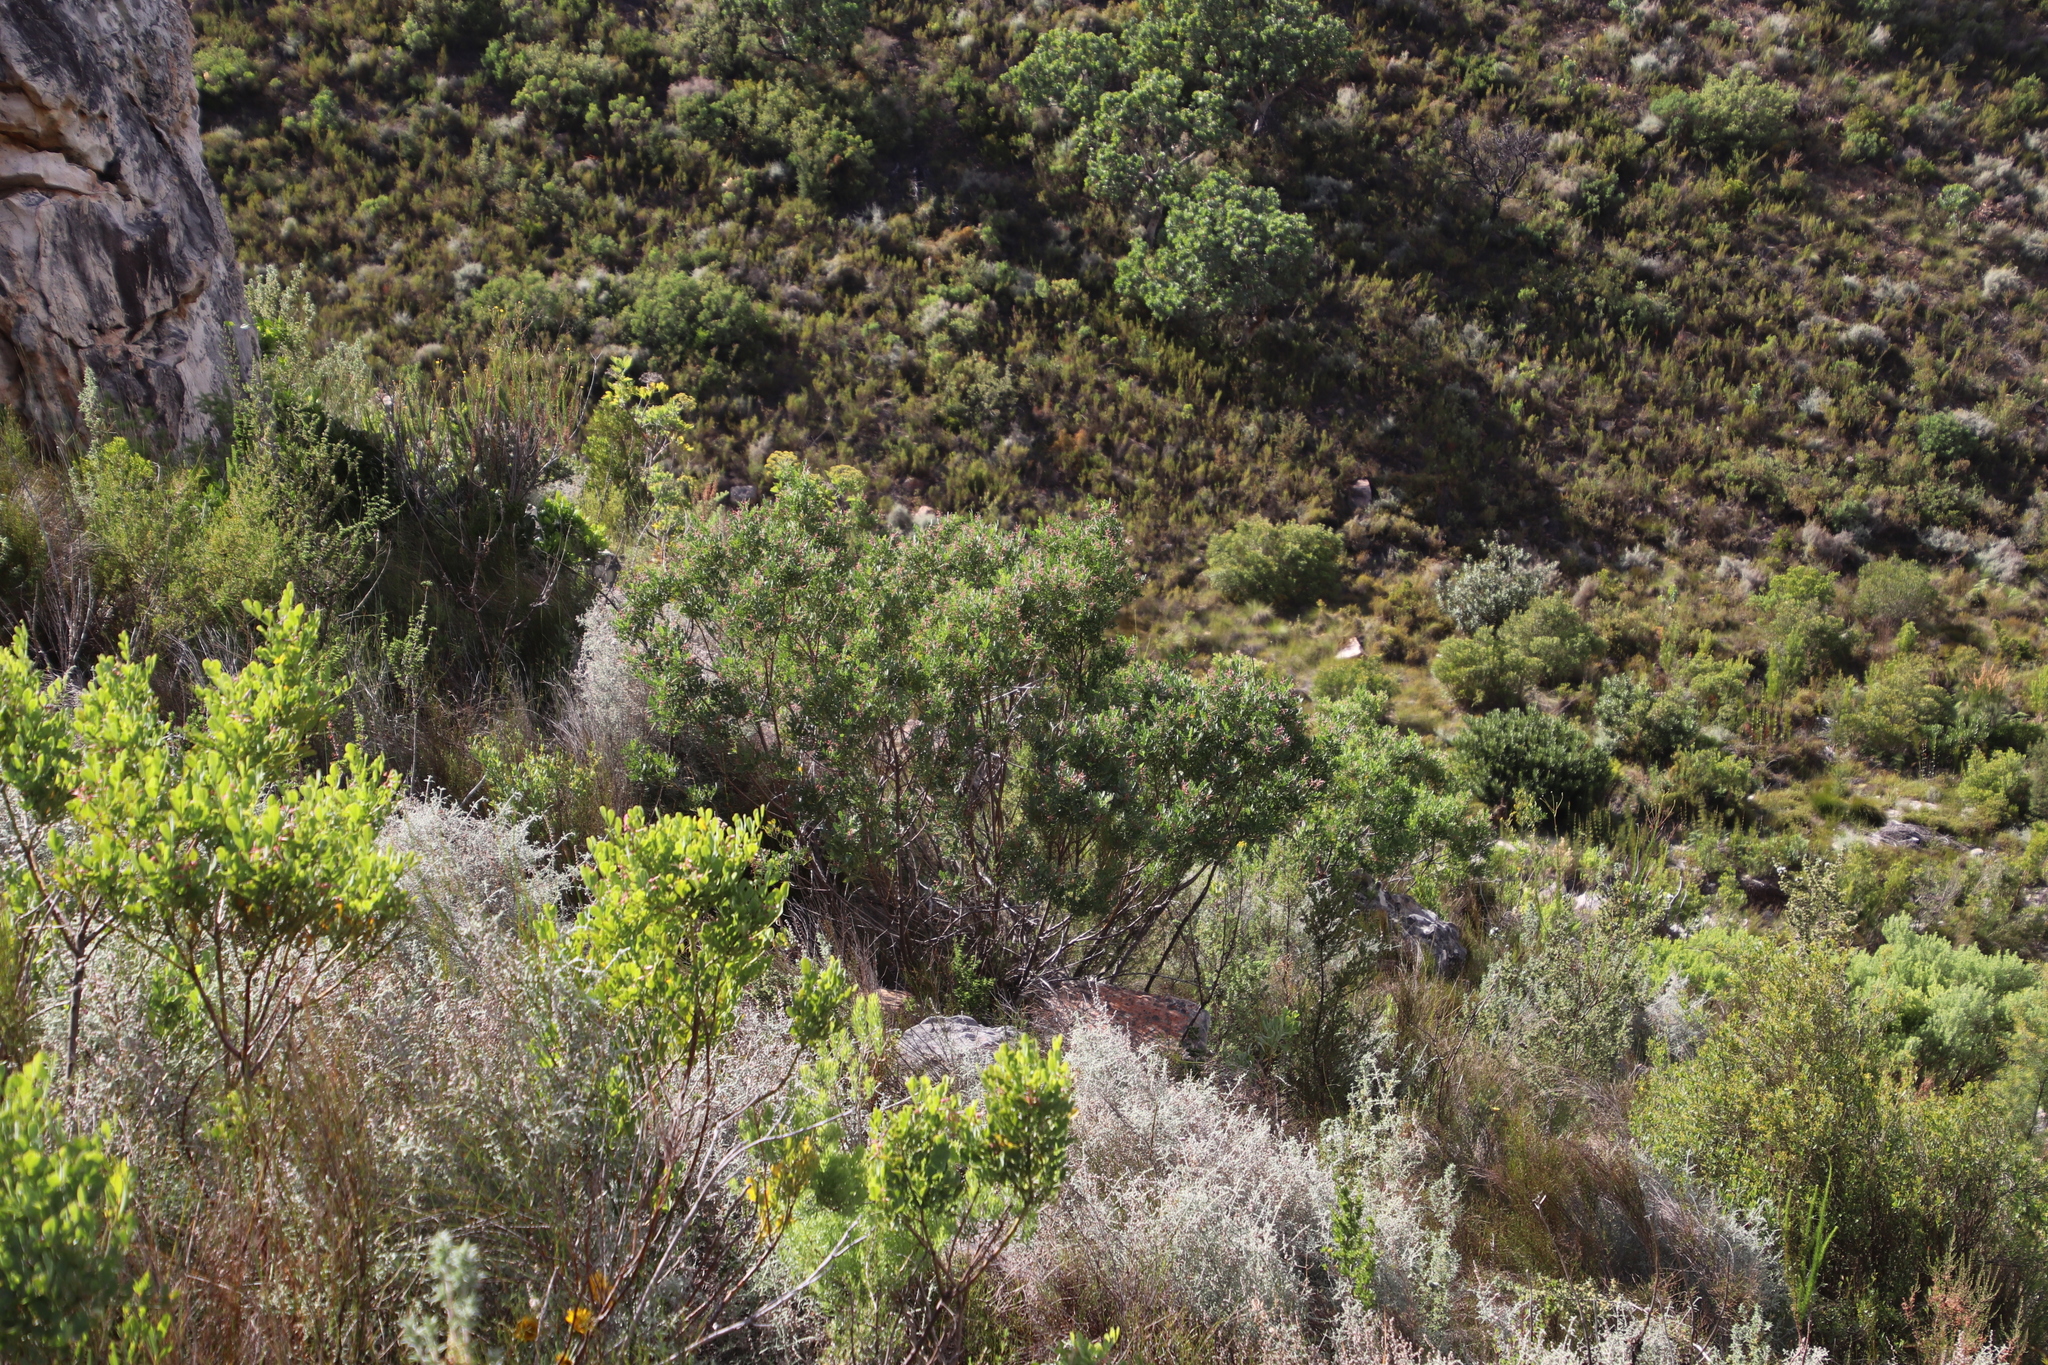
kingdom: Plantae
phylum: Tracheophyta
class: Magnoliopsida
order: Fabales
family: Fabaceae
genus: Indigofera
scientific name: Indigofera frutescens
